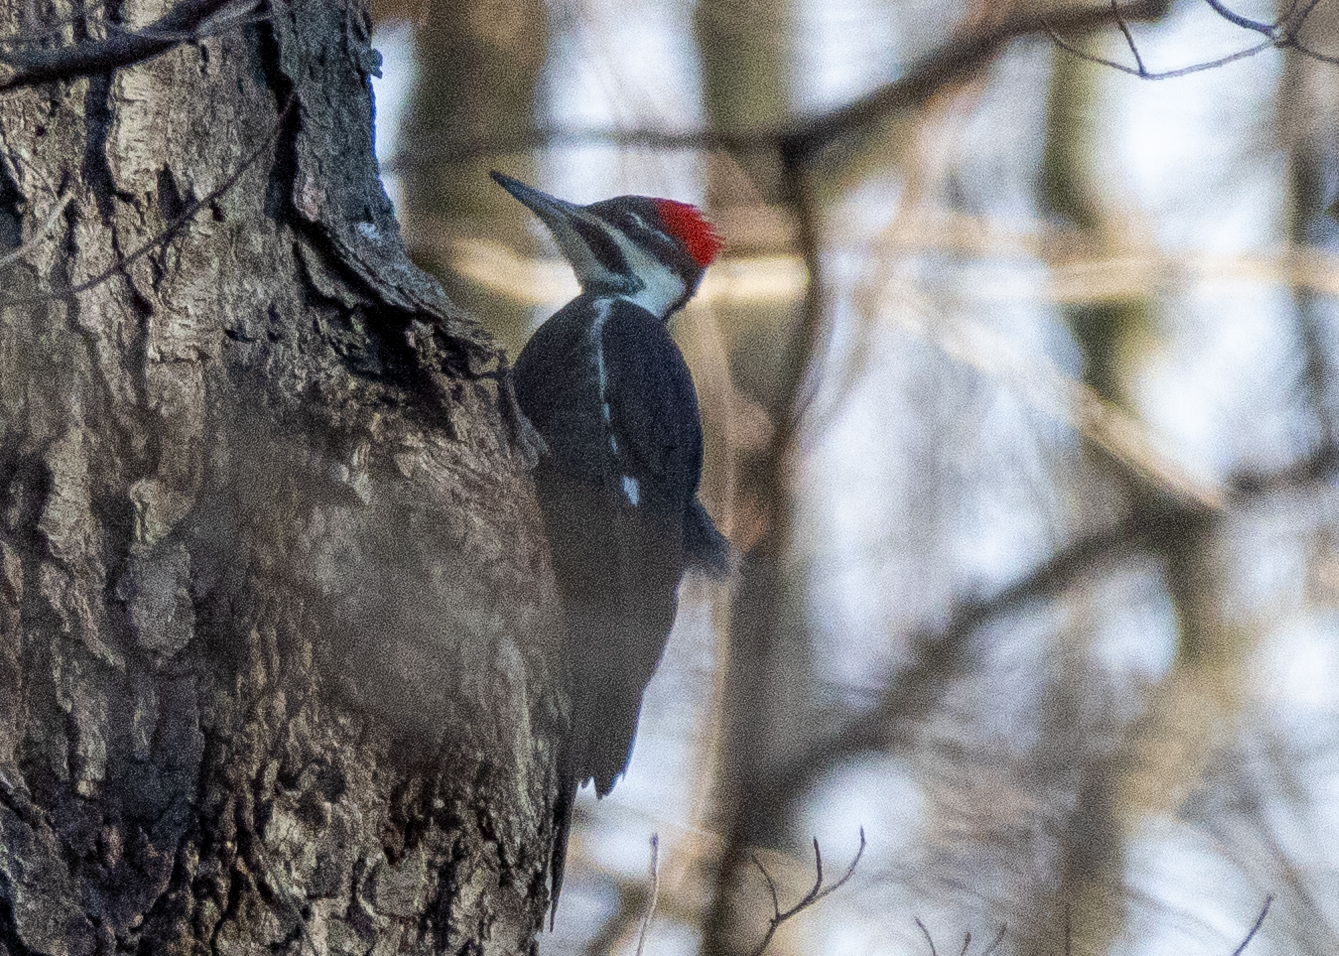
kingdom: Animalia
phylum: Chordata
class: Aves
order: Piciformes
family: Picidae
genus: Dryocopus
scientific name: Dryocopus pileatus
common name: Pileated woodpecker
